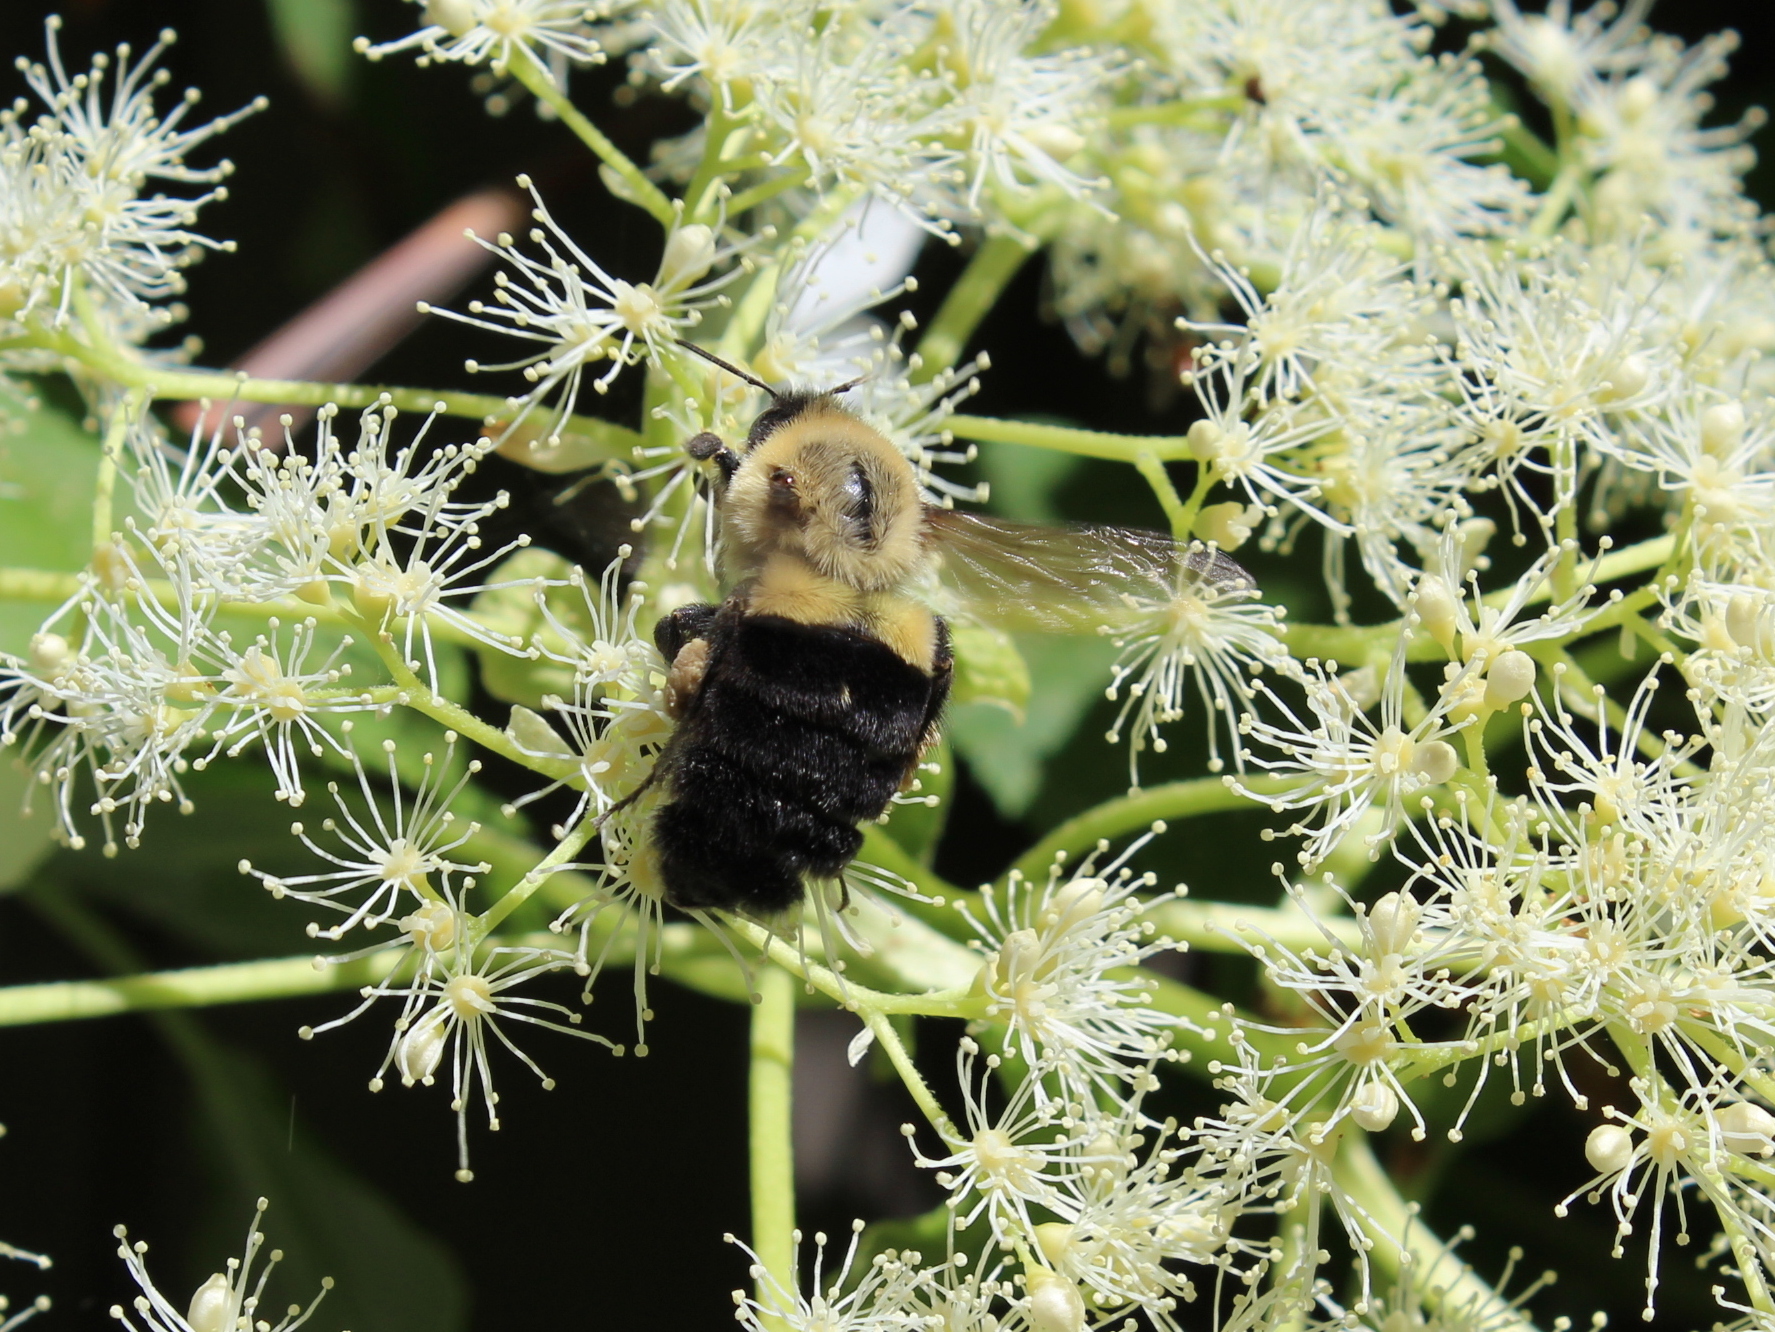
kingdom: Animalia
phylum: Arthropoda
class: Insecta
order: Hymenoptera
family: Apidae
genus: Bombus
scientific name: Bombus impatiens
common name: Common eastern bumble bee
